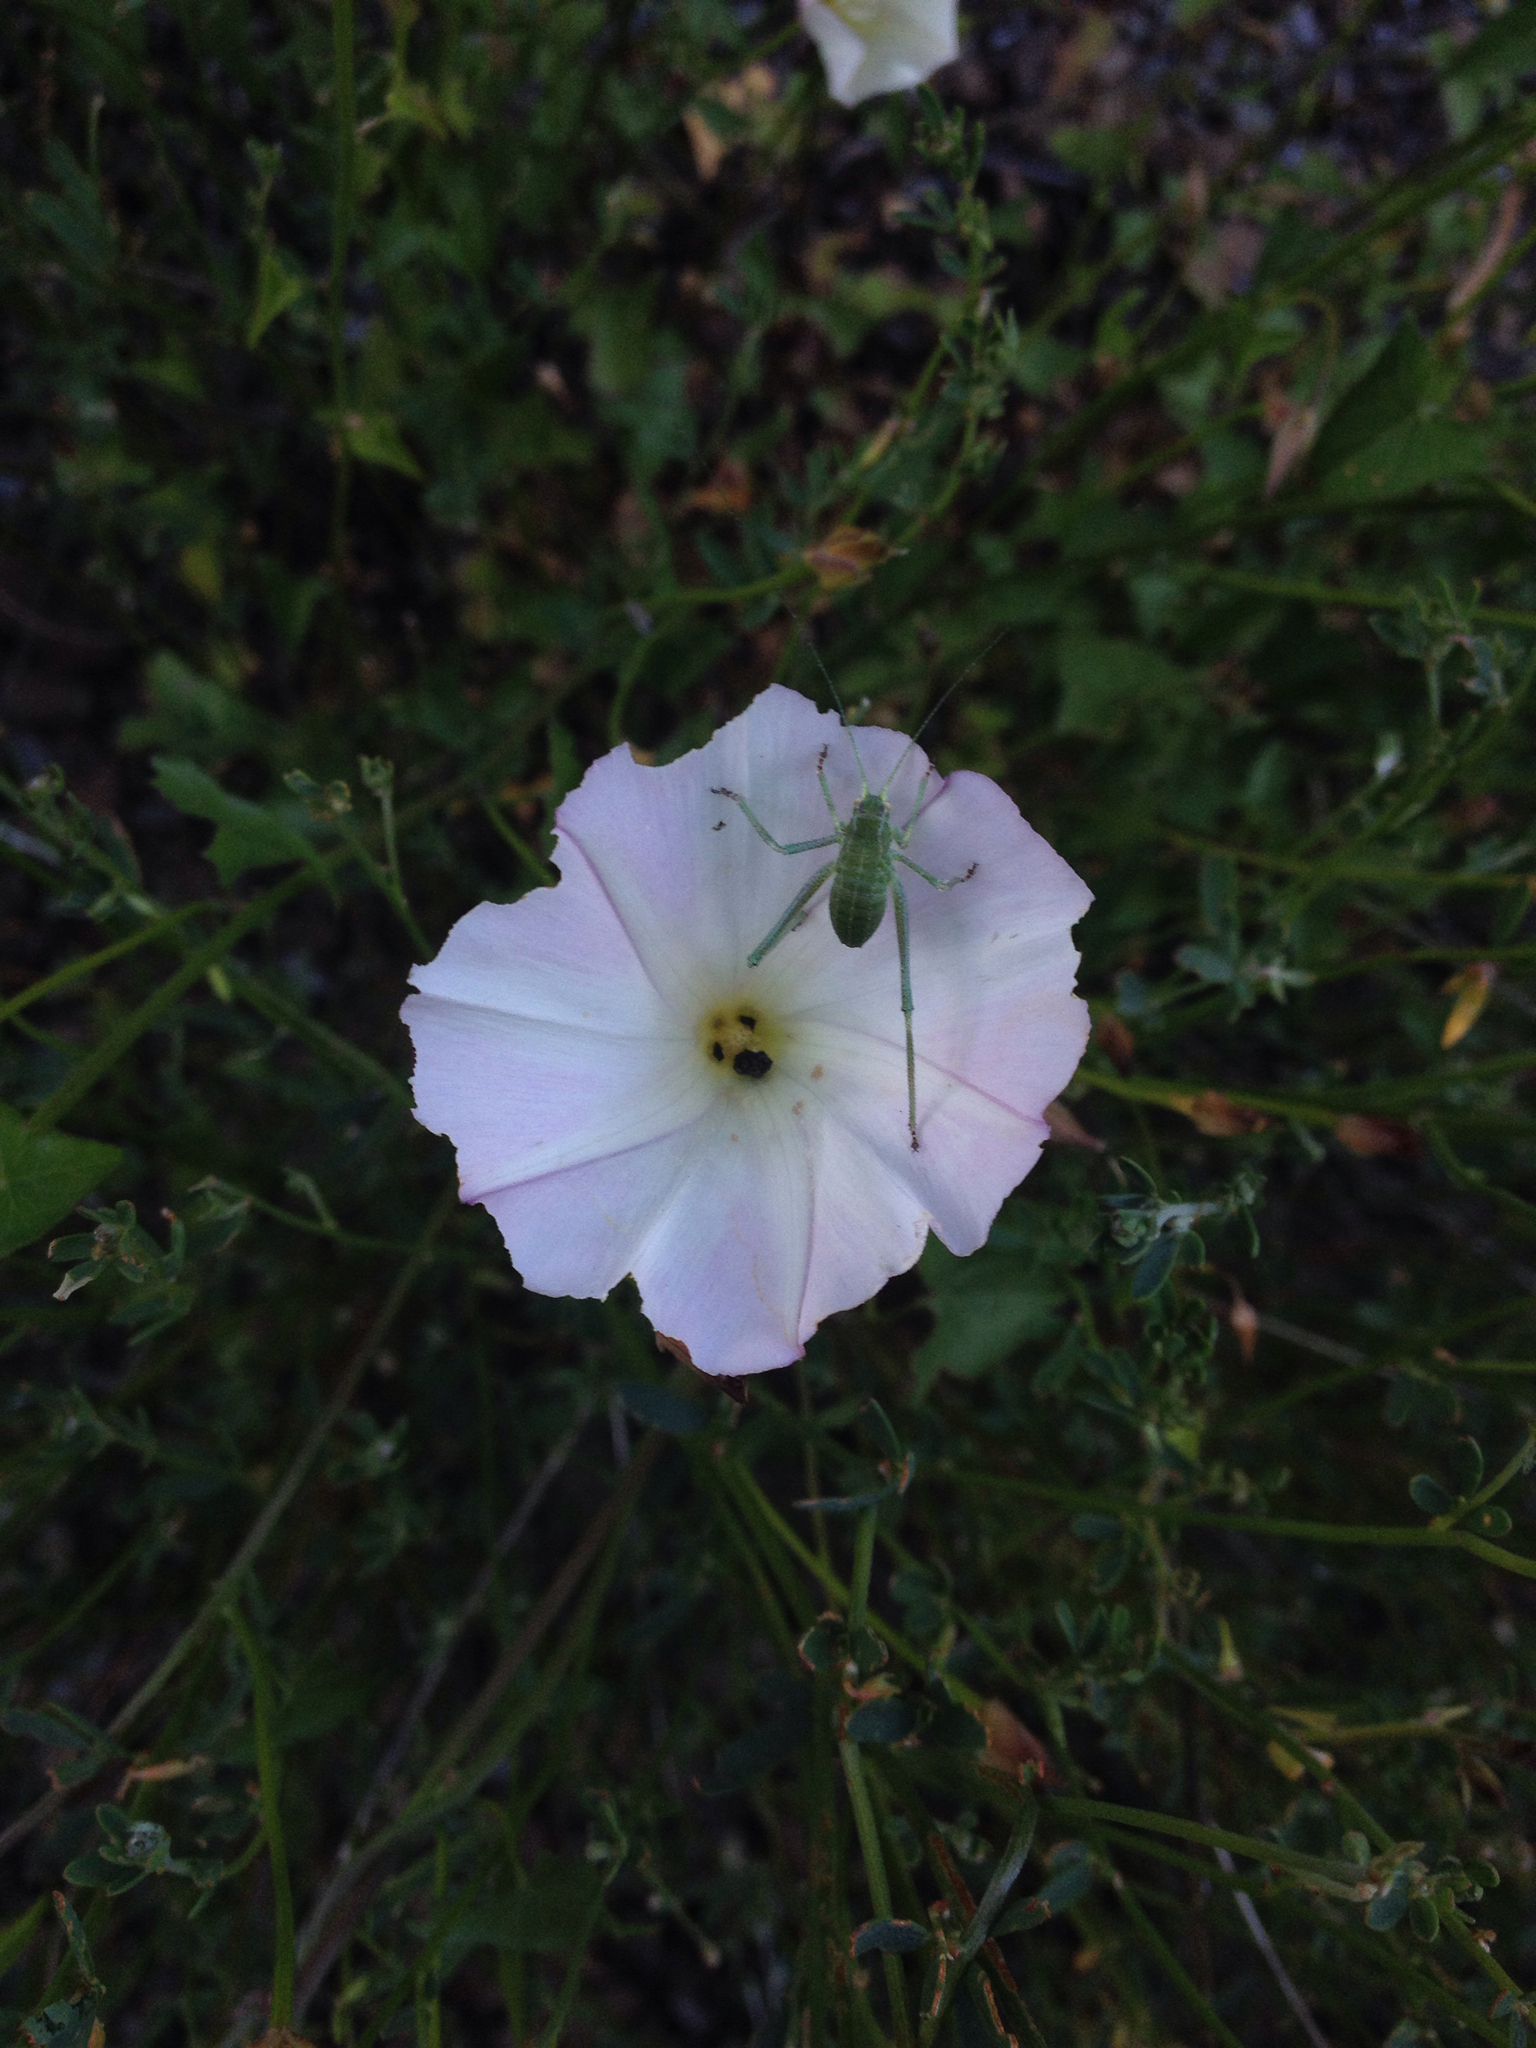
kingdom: Animalia
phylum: Arthropoda
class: Insecta
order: Orthoptera
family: Tettigoniidae
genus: Platylyra
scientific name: Platylyra californica
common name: Chaparral false katydid
